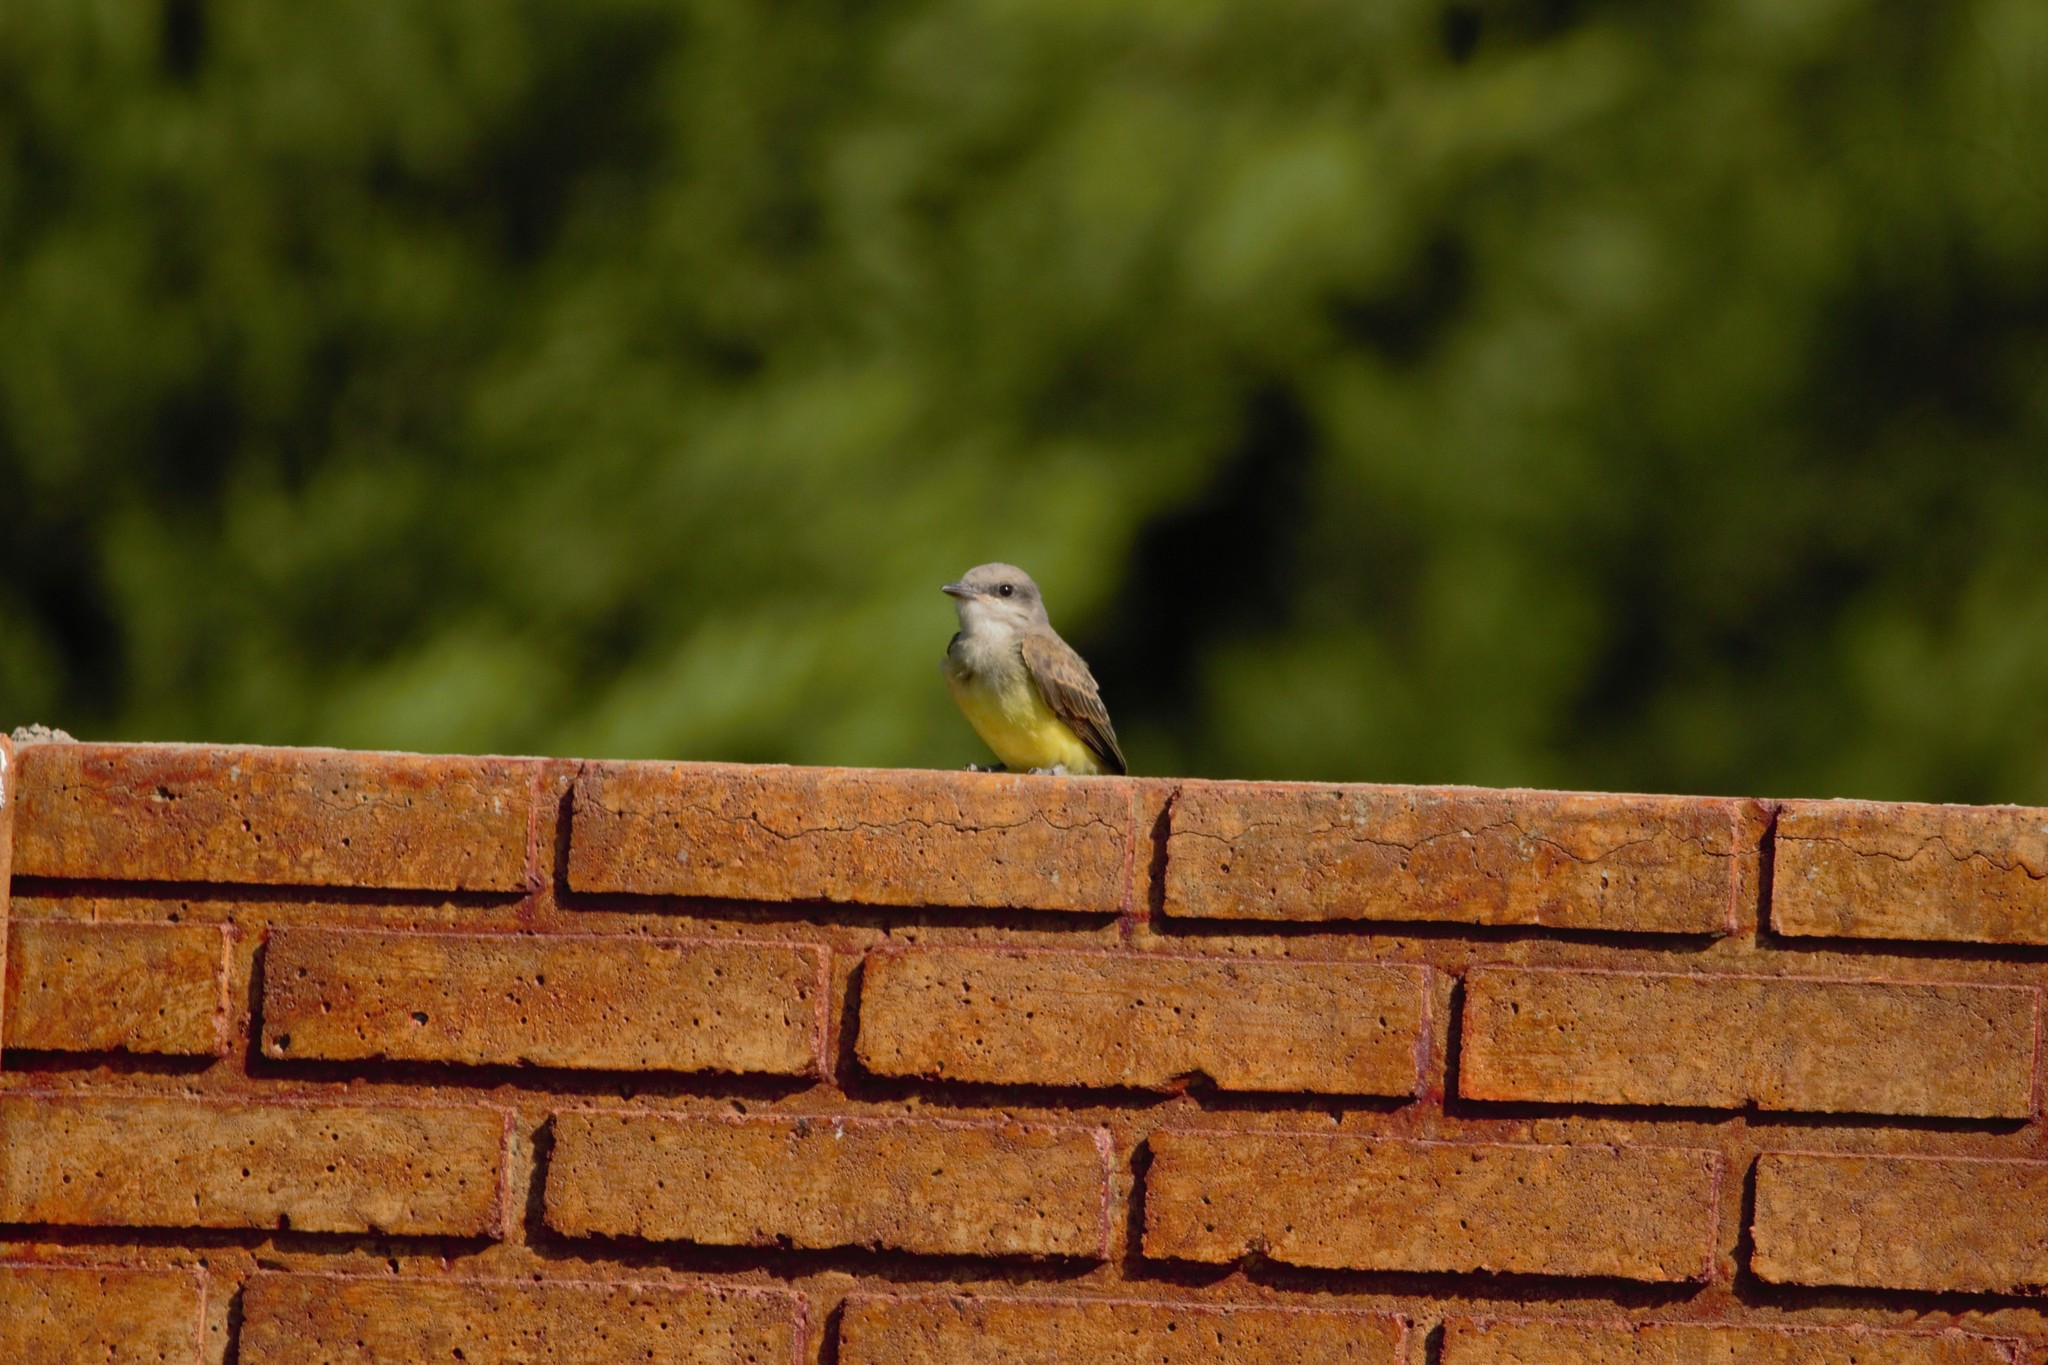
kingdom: Animalia
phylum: Chordata
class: Aves
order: Passeriformes
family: Tyrannidae
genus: Tyrannus
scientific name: Tyrannus melancholicus
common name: Tropical kingbird
